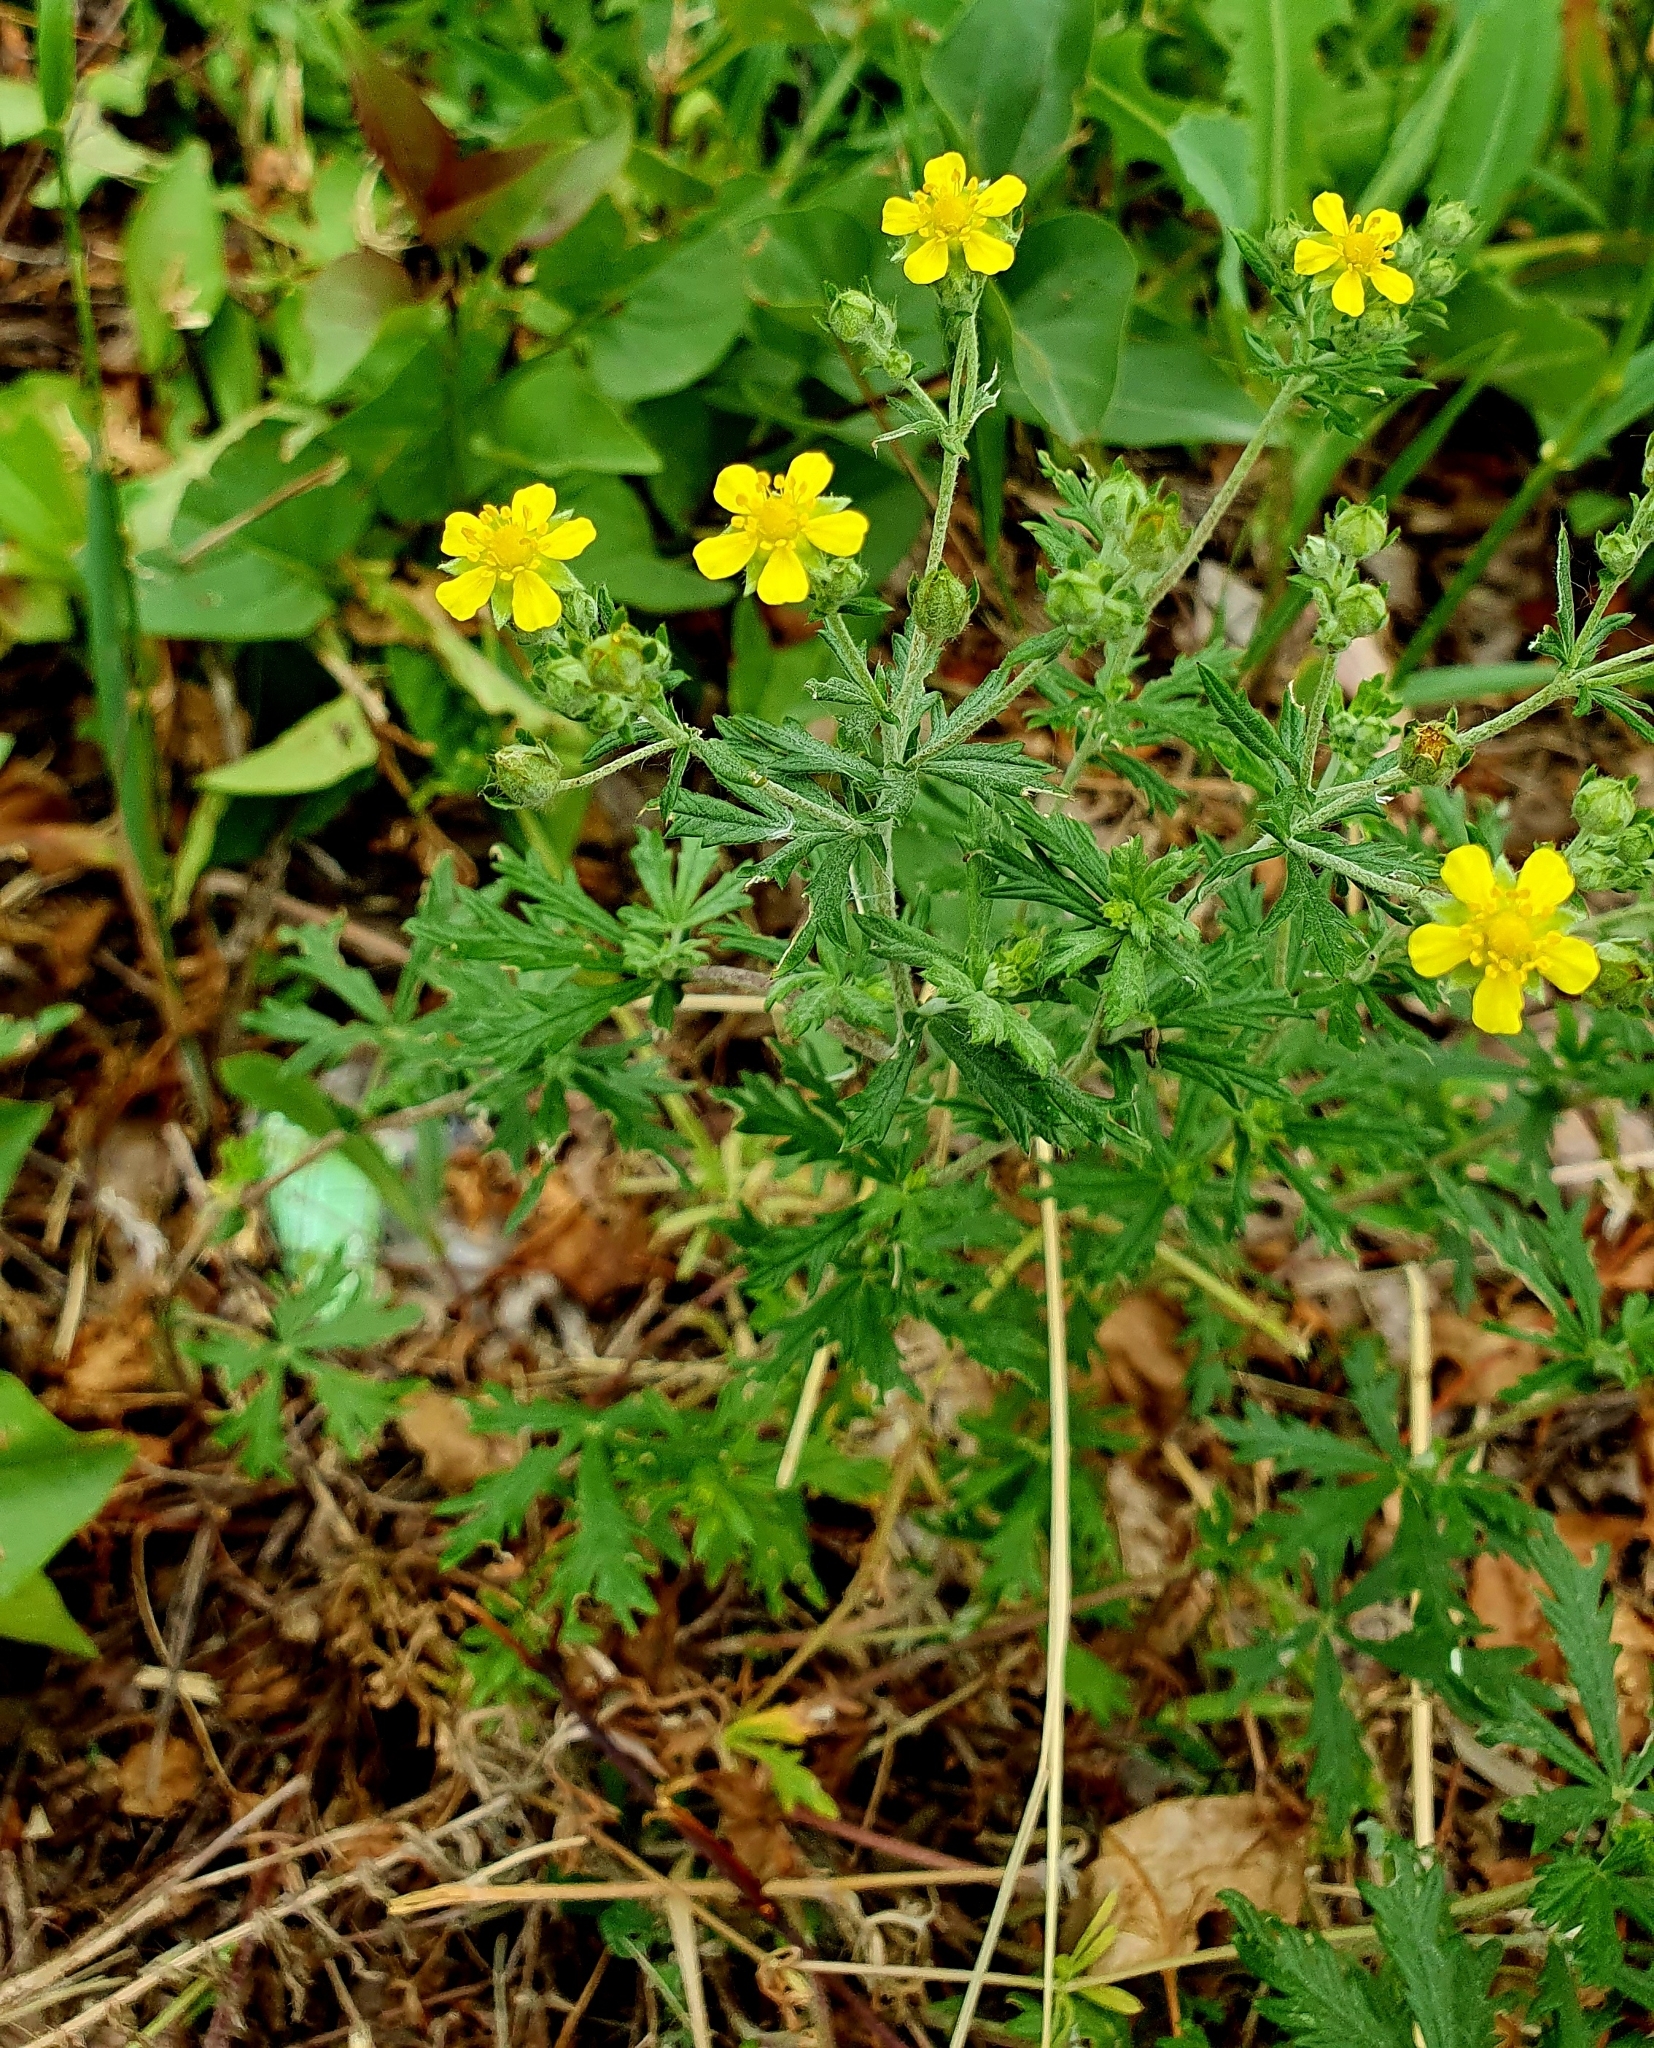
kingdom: Plantae
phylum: Tracheophyta
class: Magnoliopsida
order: Rosales
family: Rosaceae
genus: Potentilla
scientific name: Potentilla argentea
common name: Hoary cinquefoil
